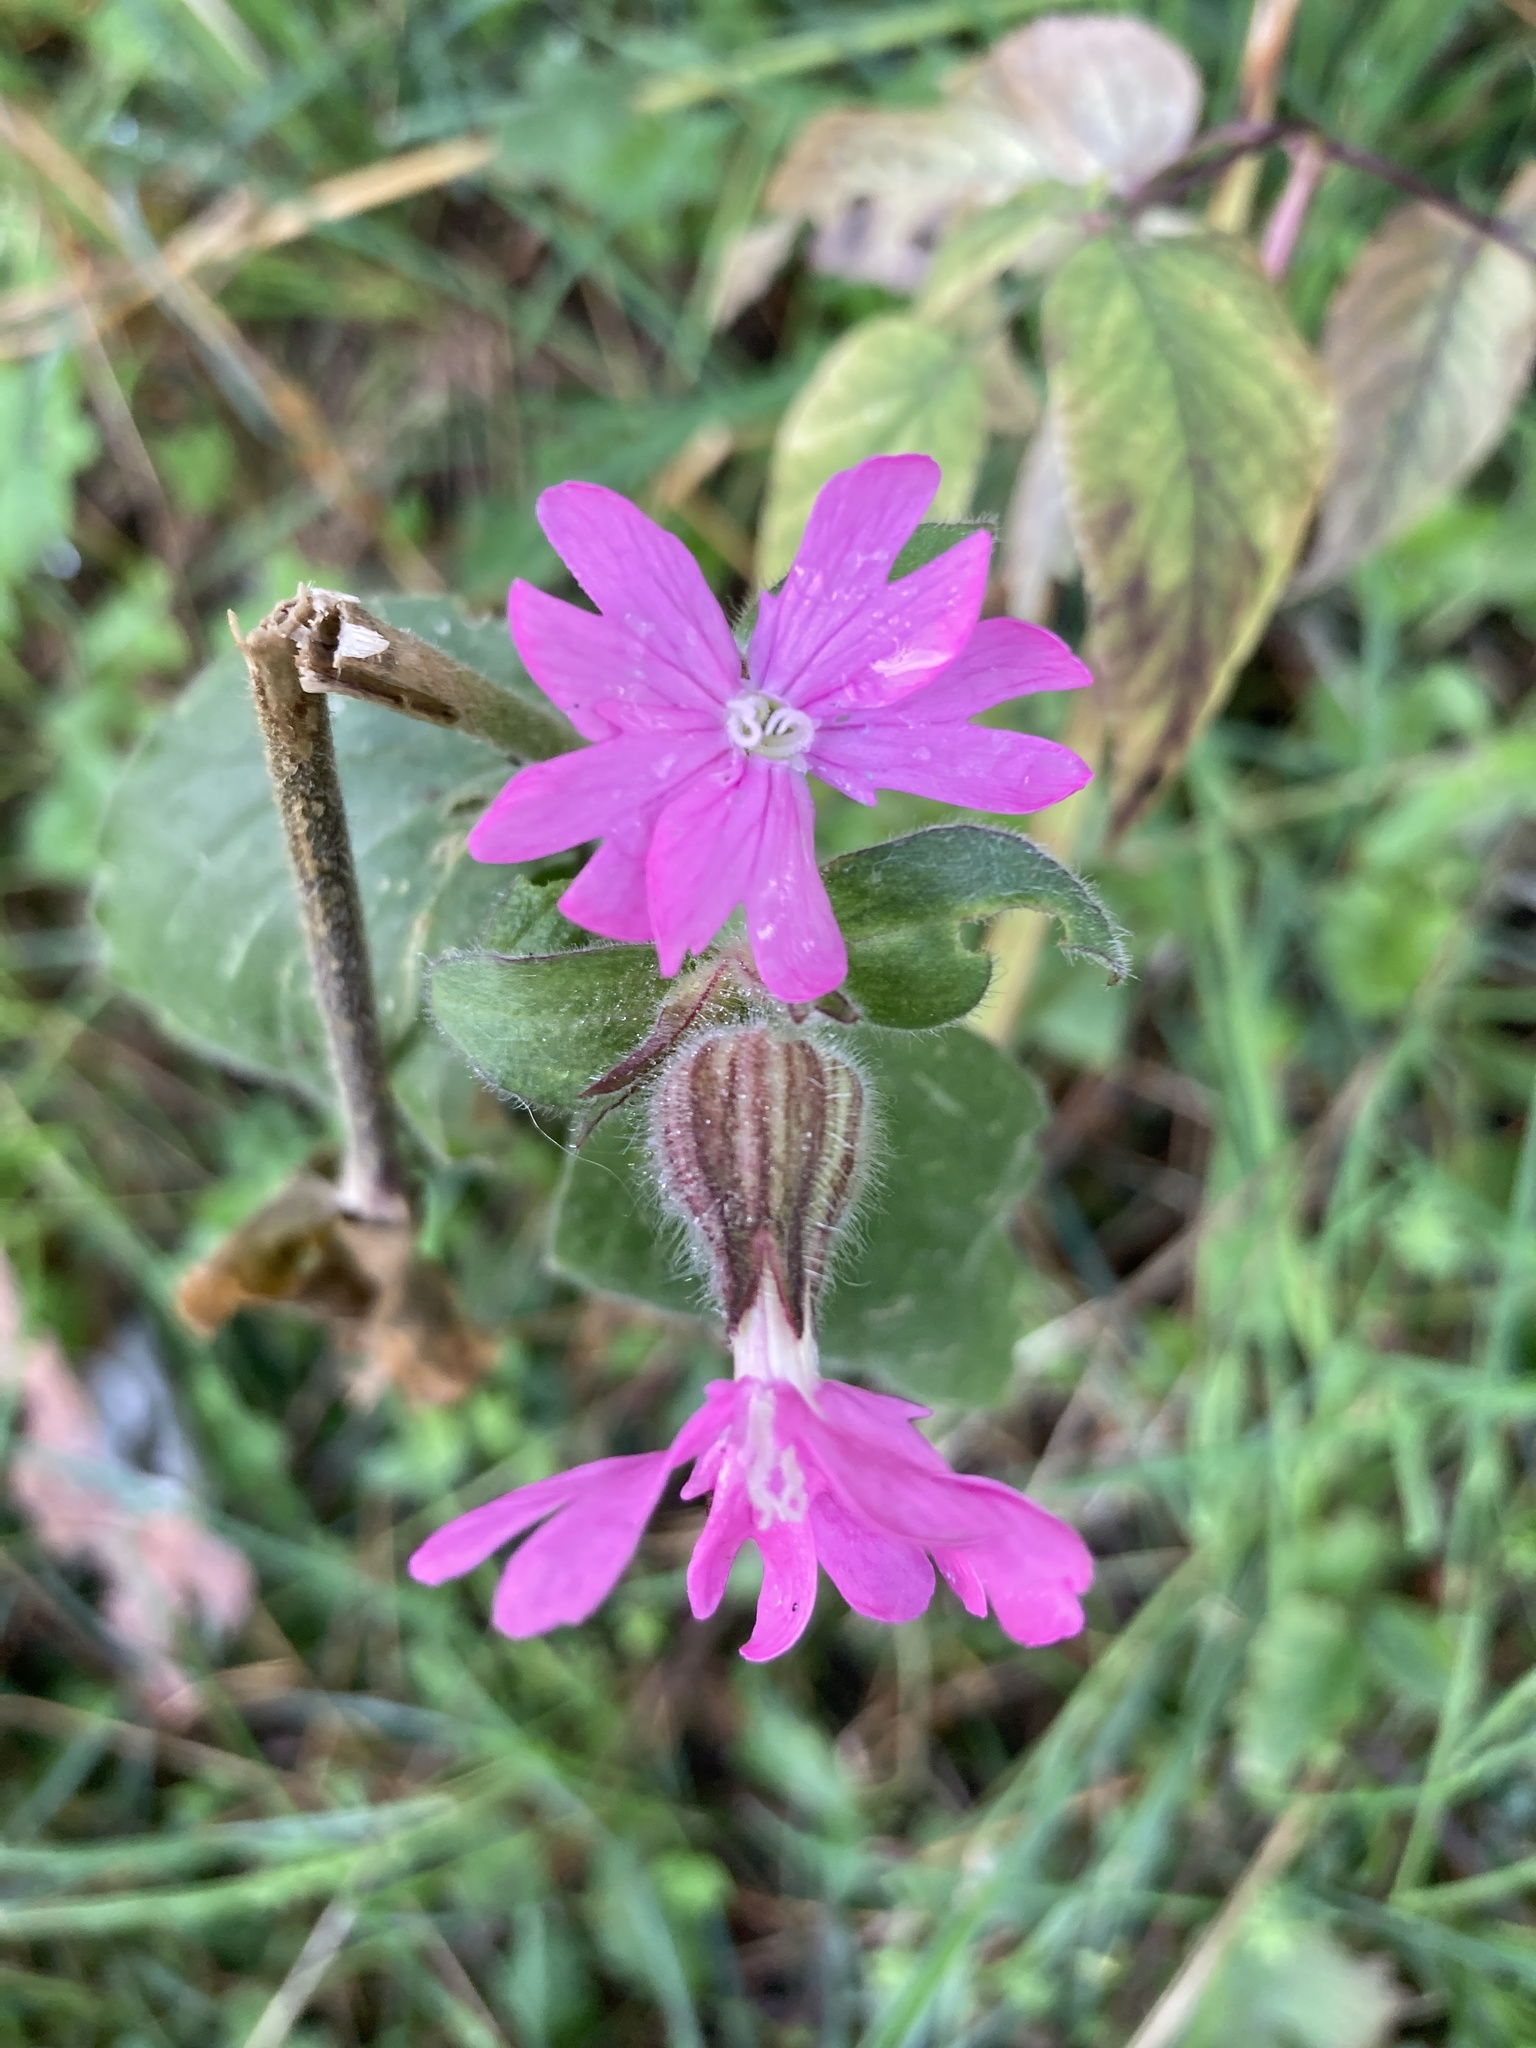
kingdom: Plantae
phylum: Tracheophyta
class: Magnoliopsida
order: Caryophyllales
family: Caryophyllaceae
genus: Silene
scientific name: Silene dioica
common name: Red campion
